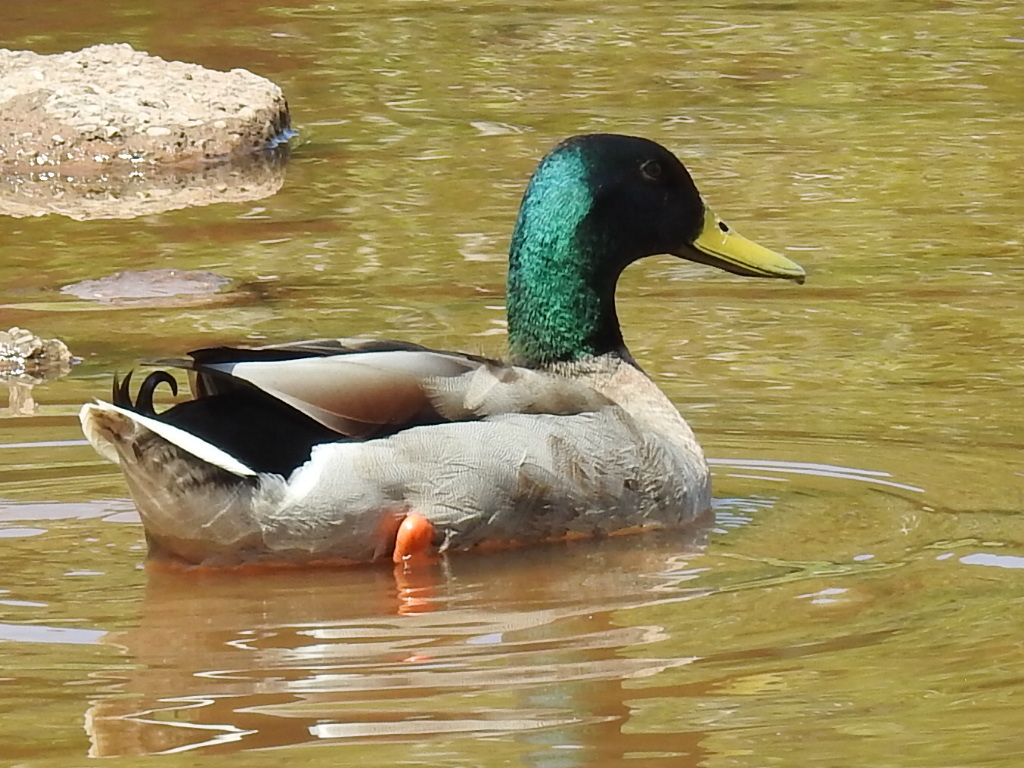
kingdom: Animalia
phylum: Chordata
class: Aves
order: Anseriformes
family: Anatidae
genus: Anas
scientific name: Anas platyrhynchos
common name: Mallard
